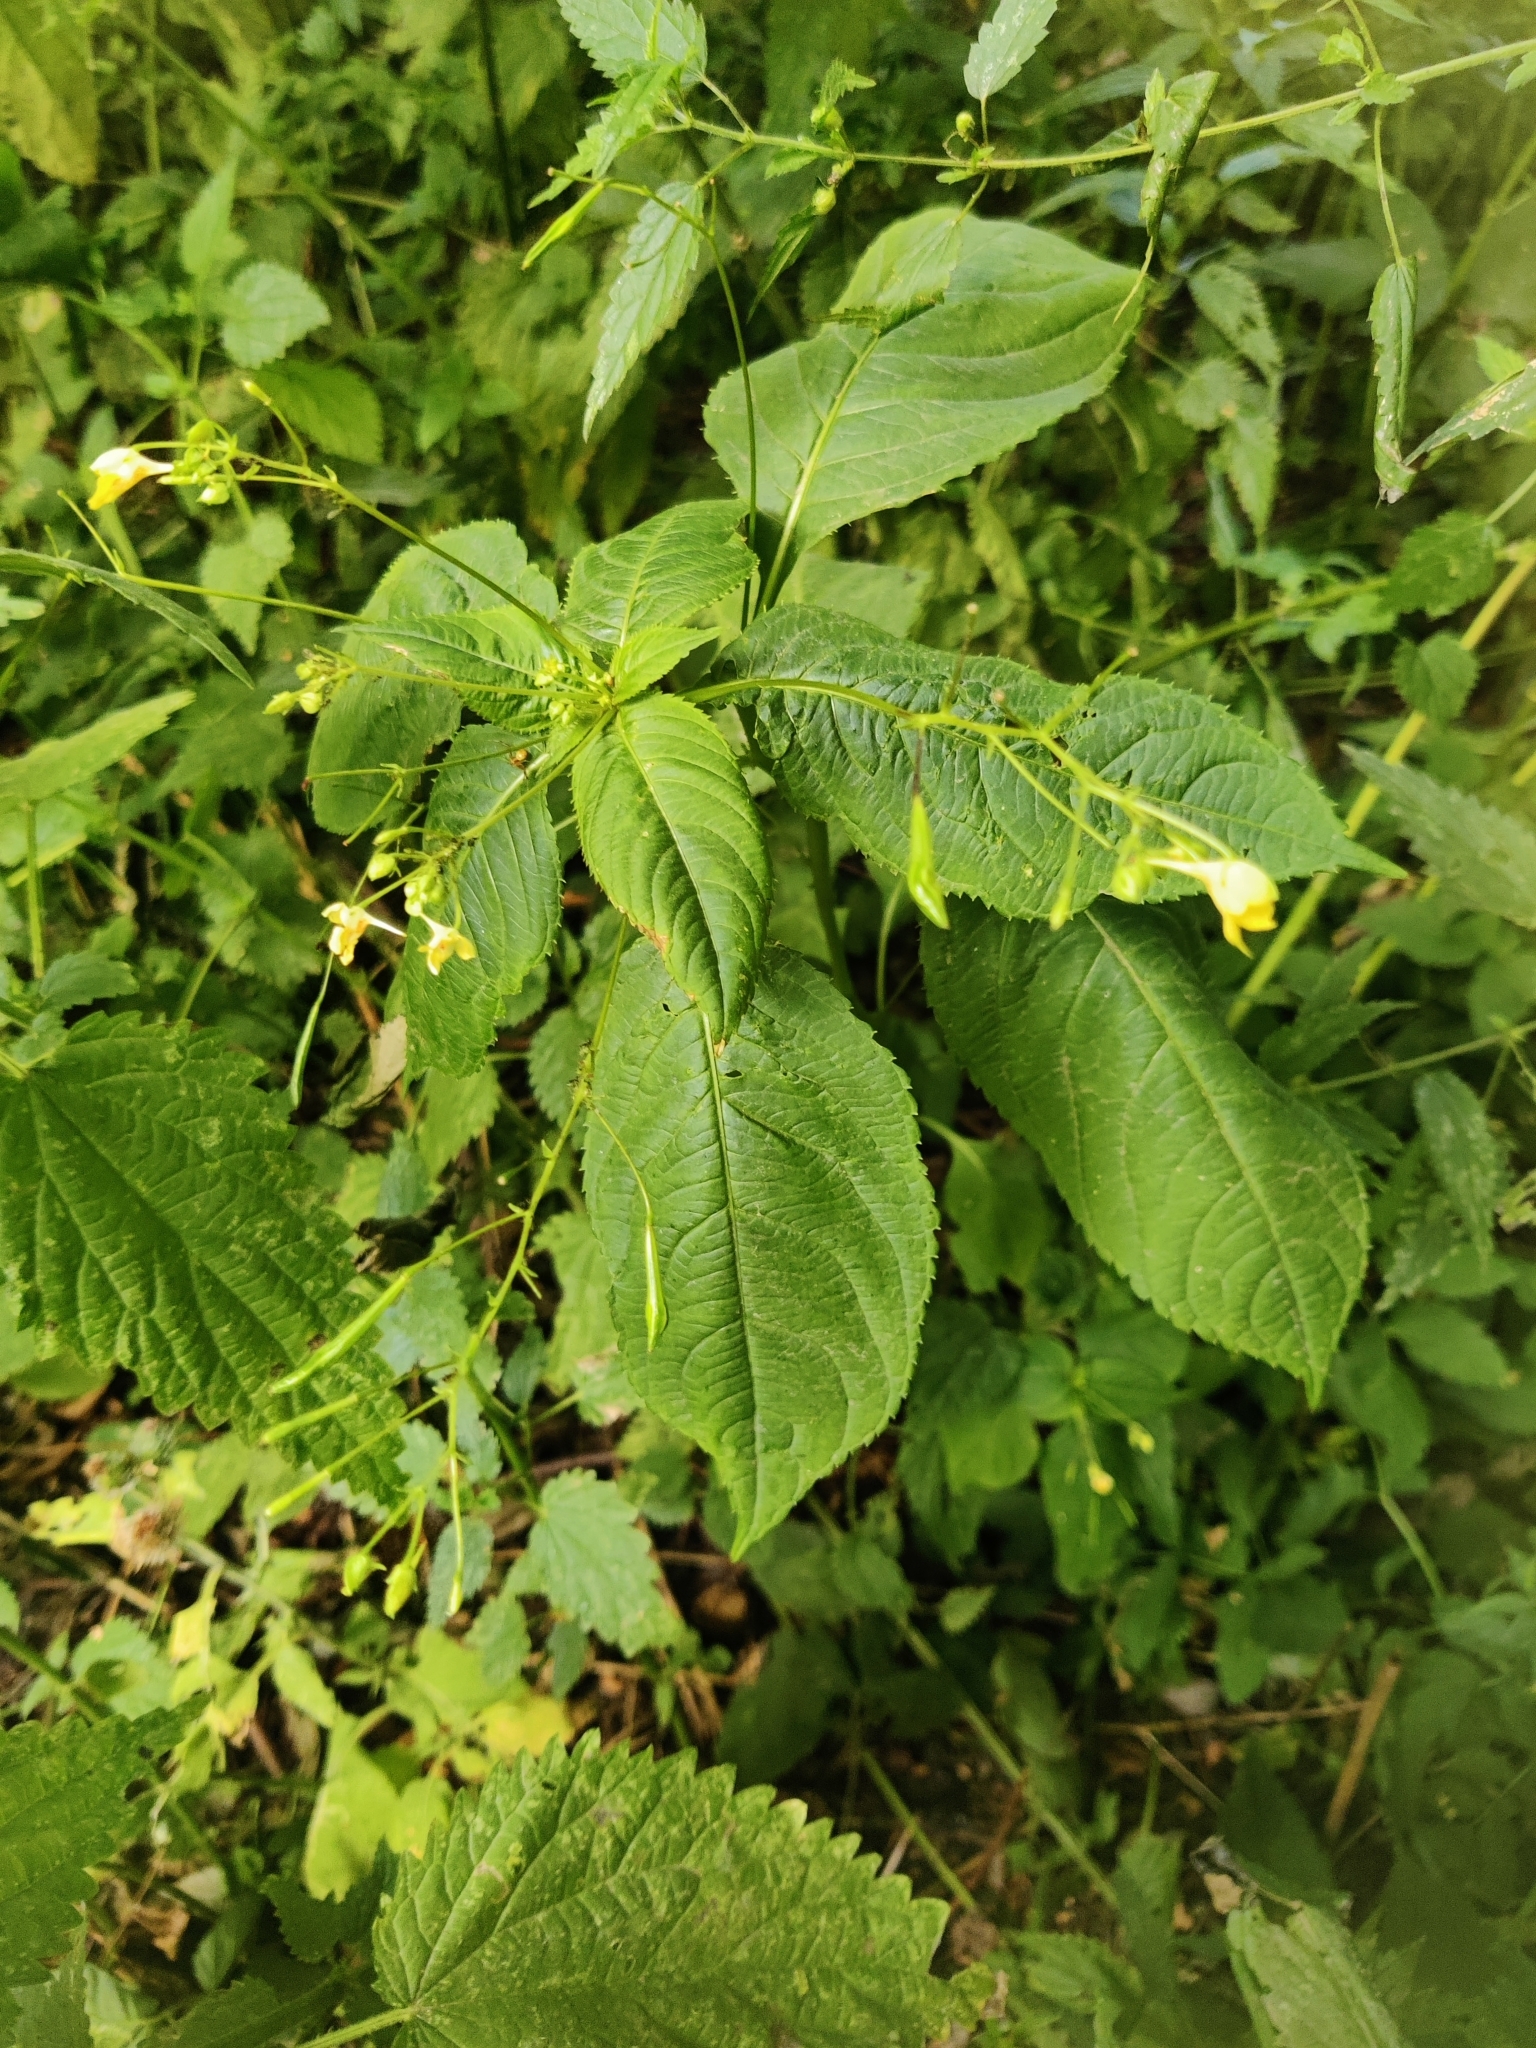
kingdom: Plantae
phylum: Tracheophyta
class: Magnoliopsida
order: Ericales
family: Balsaminaceae
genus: Impatiens
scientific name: Impatiens parviflora
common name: Small balsam
